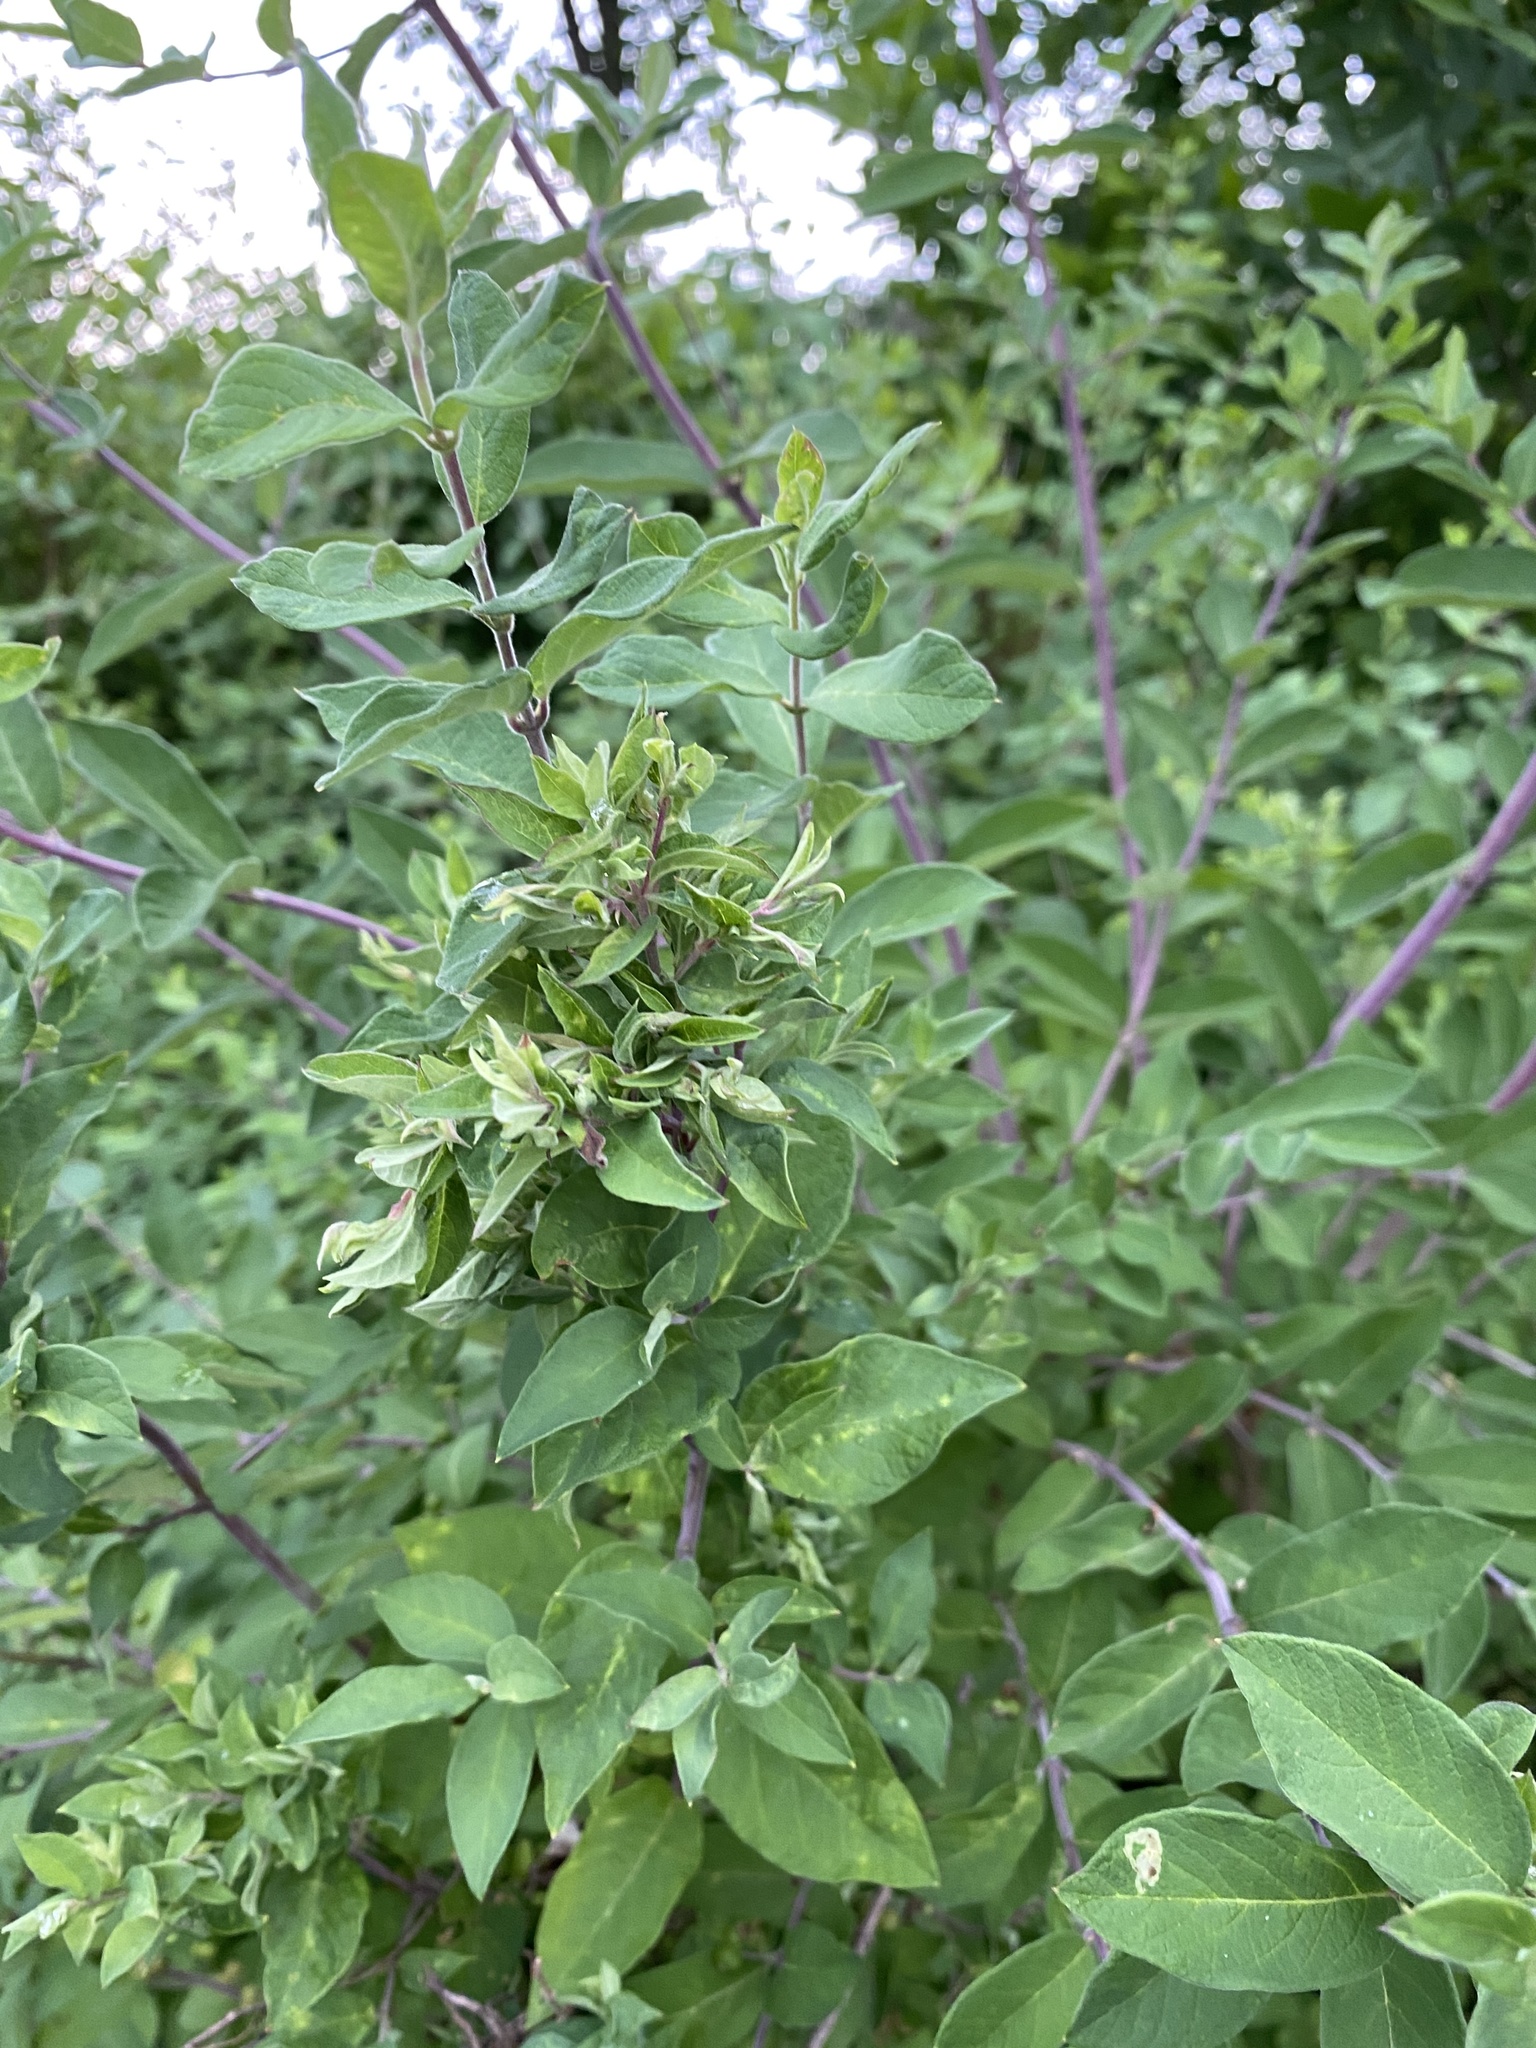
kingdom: Animalia
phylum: Arthropoda
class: Insecta
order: Hemiptera
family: Aphididae
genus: Hyadaphis
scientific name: Hyadaphis tataricae
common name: Honeysuckle witches' broom aphid
